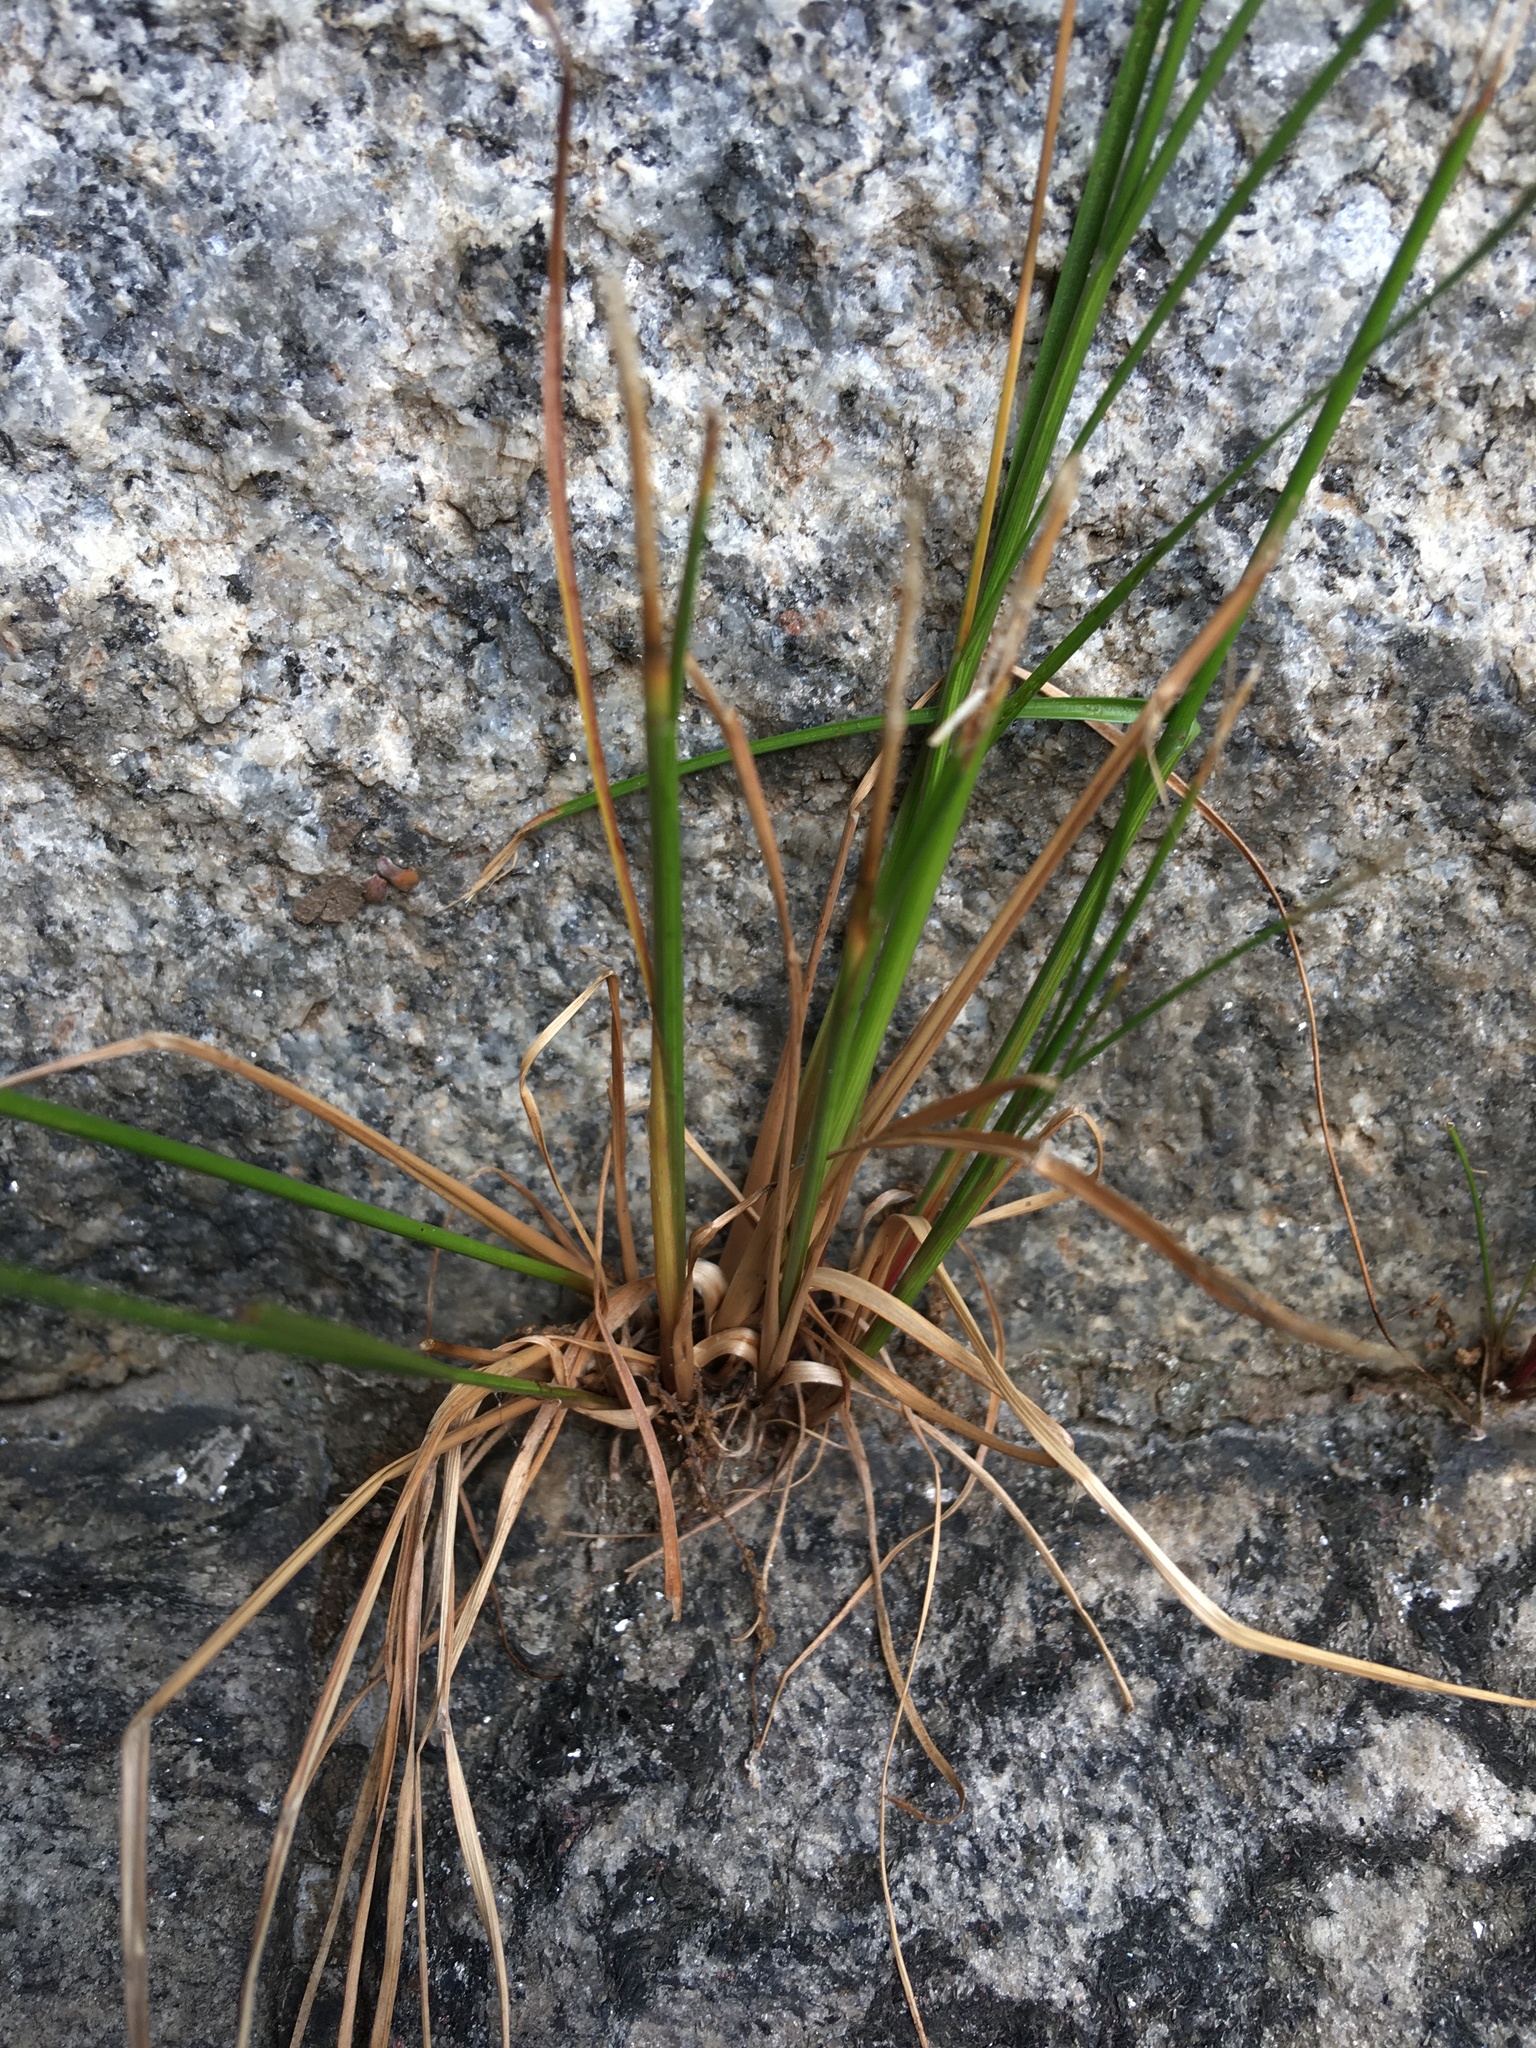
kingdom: Plantae
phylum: Tracheophyta
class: Liliopsida
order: Poales
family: Juncaceae
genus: Juncus
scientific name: Juncus tenuis
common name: Slender rush
